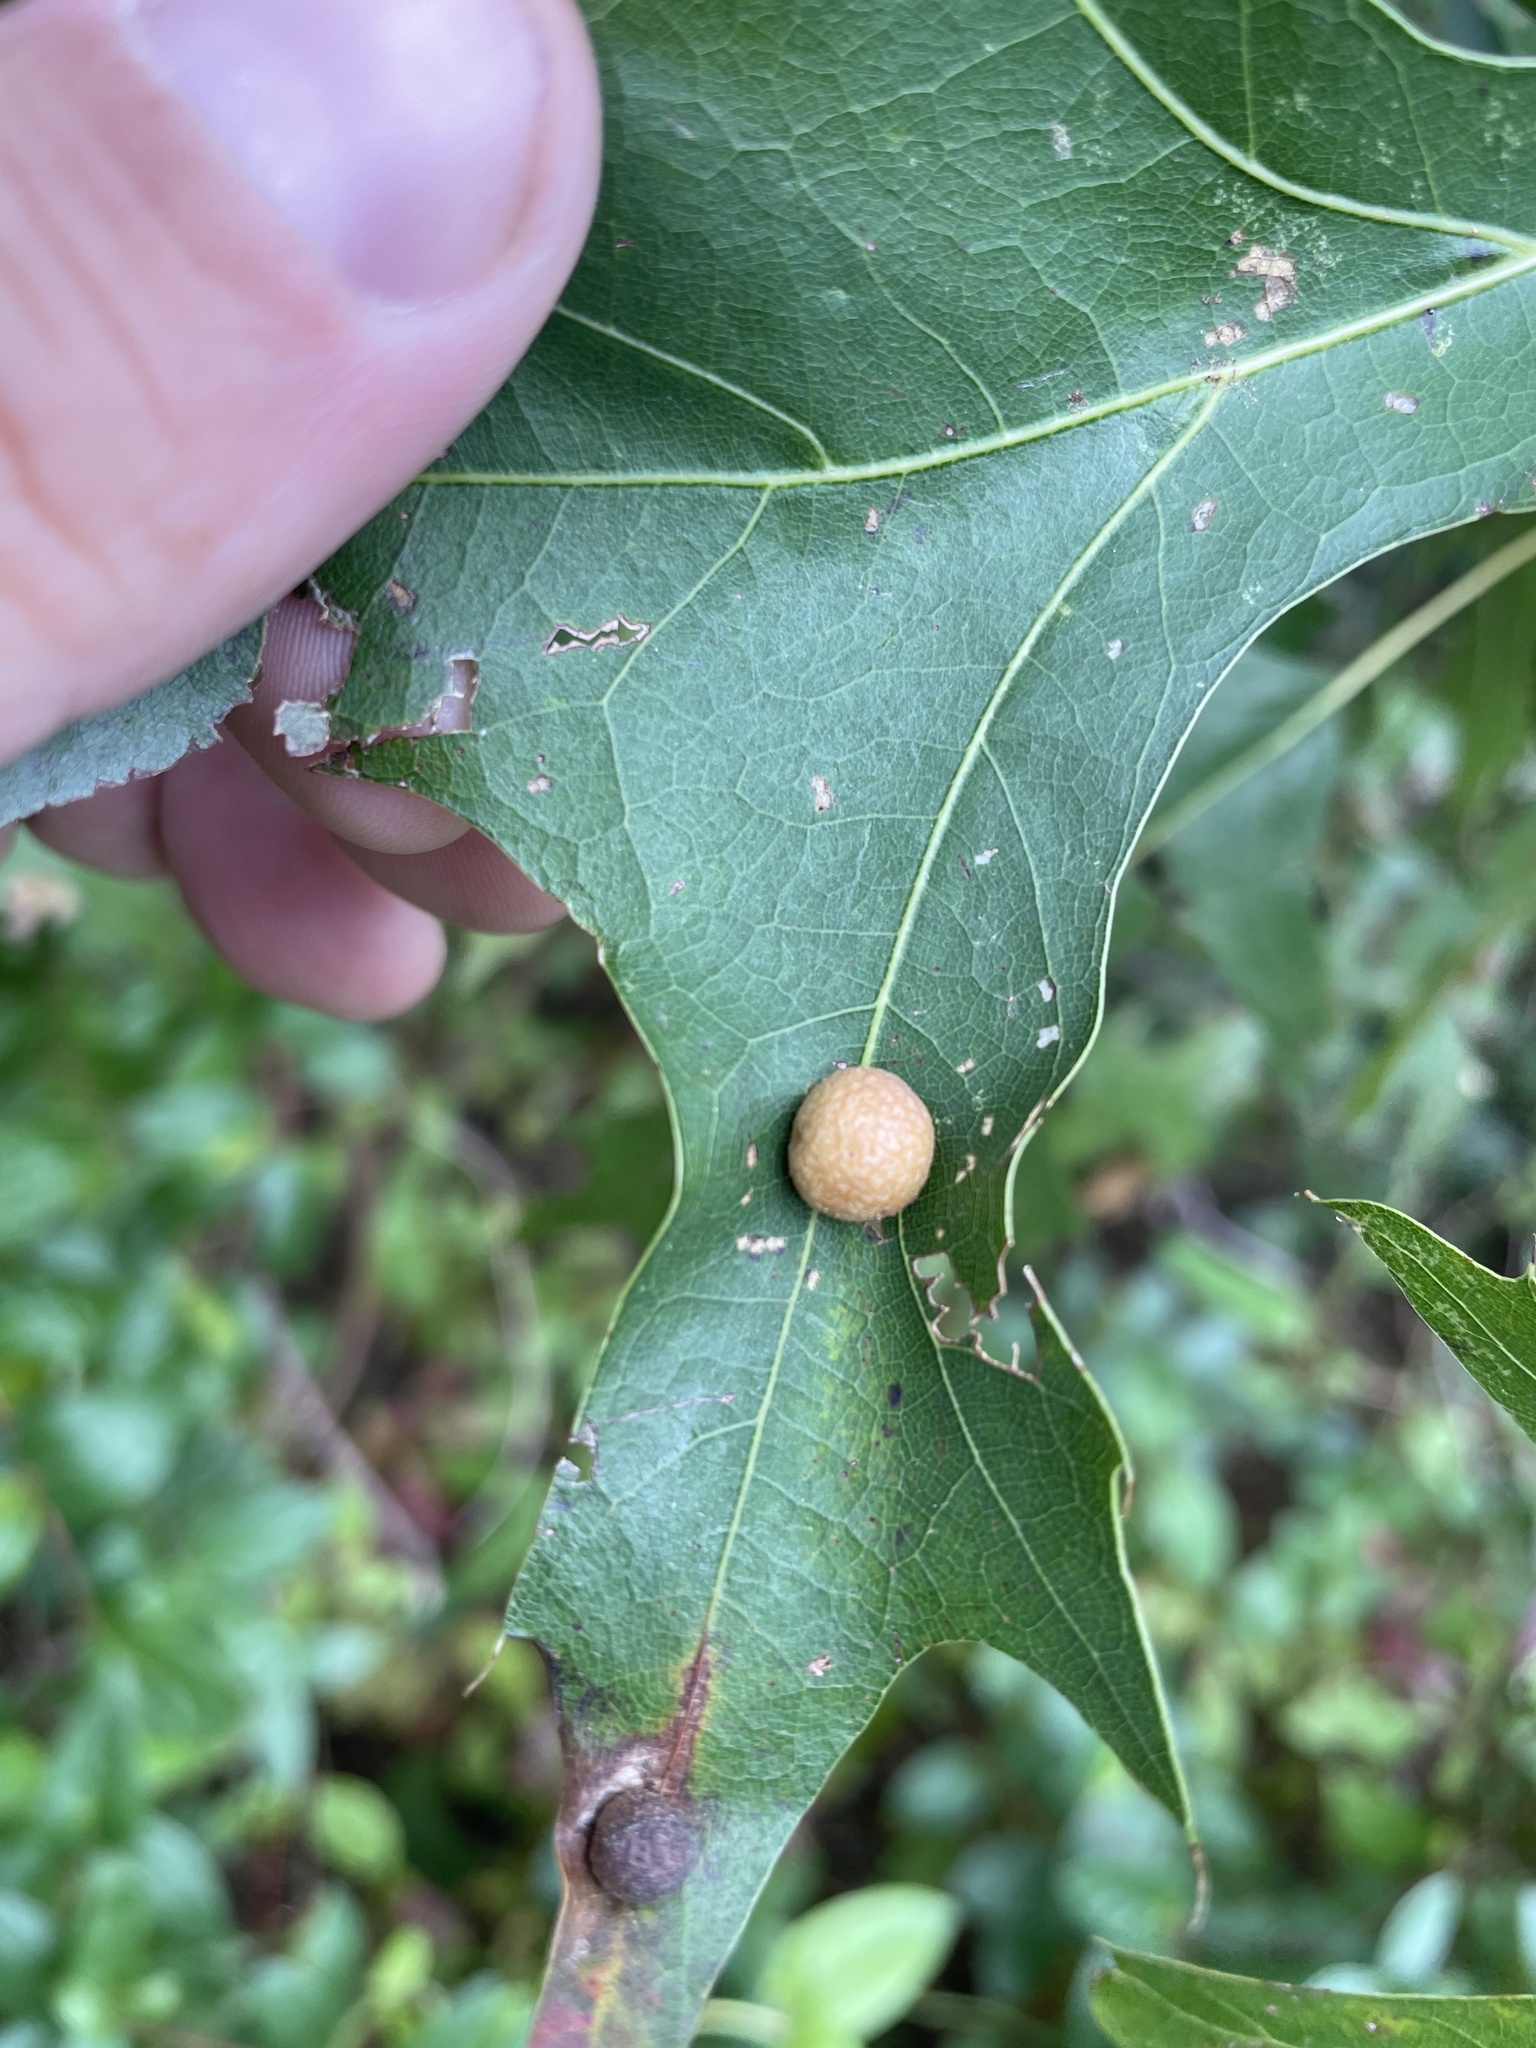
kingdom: Animalia
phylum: Arthropoda
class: Insecta
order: Diptera
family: Cecidomyiidae
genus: Polystepha
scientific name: Polystepha pilulae
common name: Oak leaf gall midge
